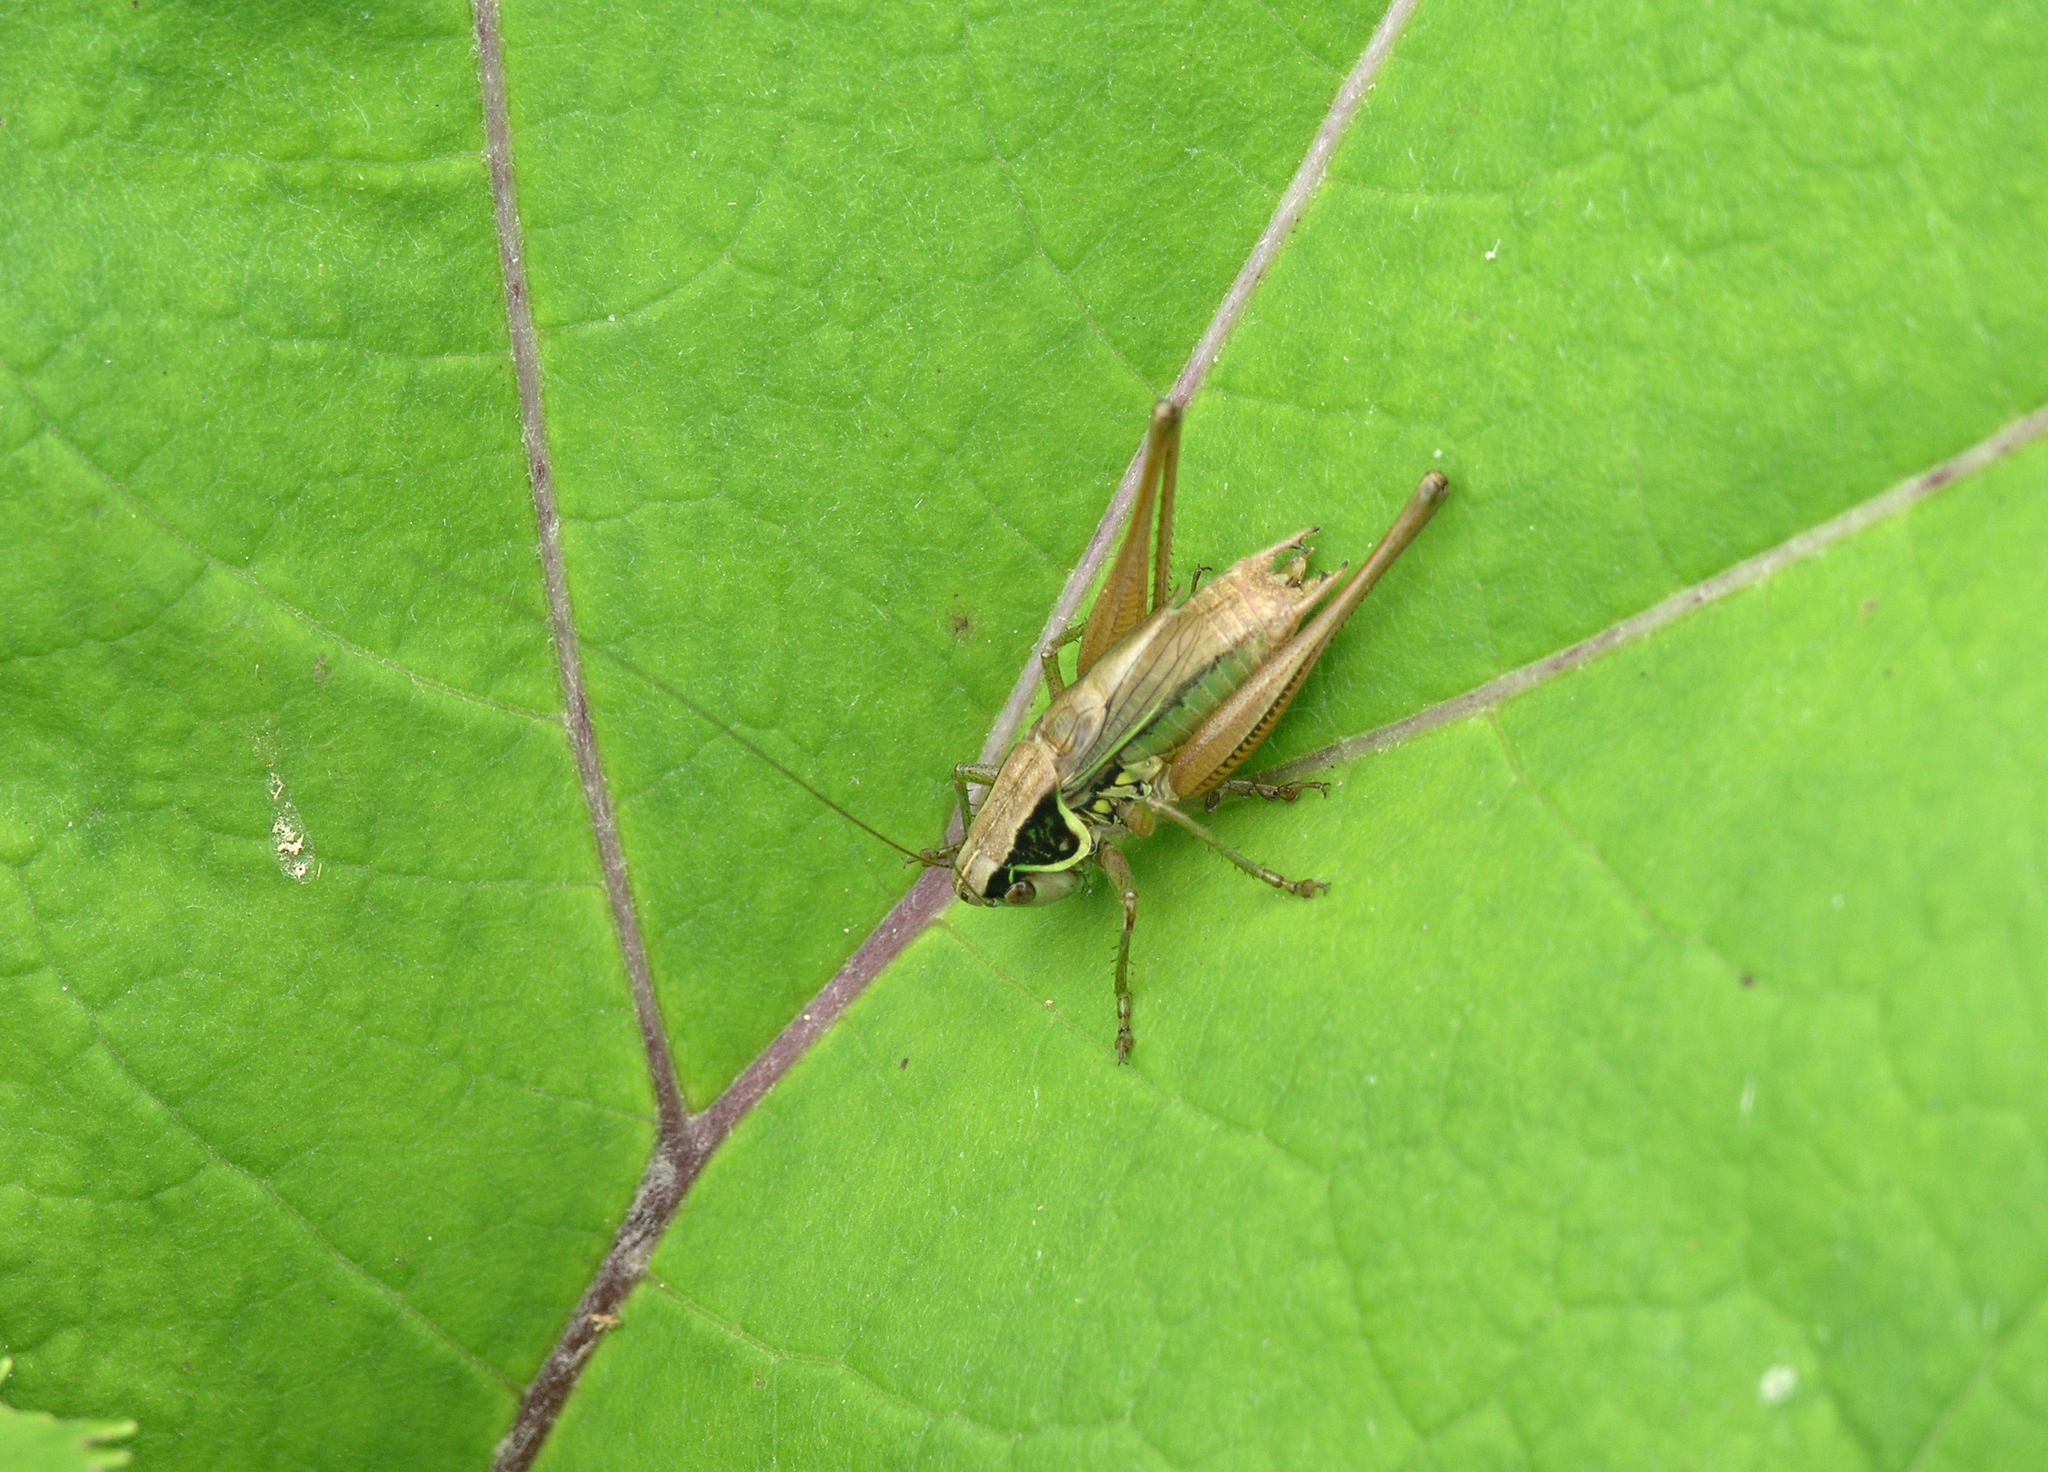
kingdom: Animalia
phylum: Arthropoda
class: Insecta
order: Orthoptera
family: Tettigoniidae
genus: Roeseliana
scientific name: Roeseliana roeselii
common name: Roesel's bush cricket
